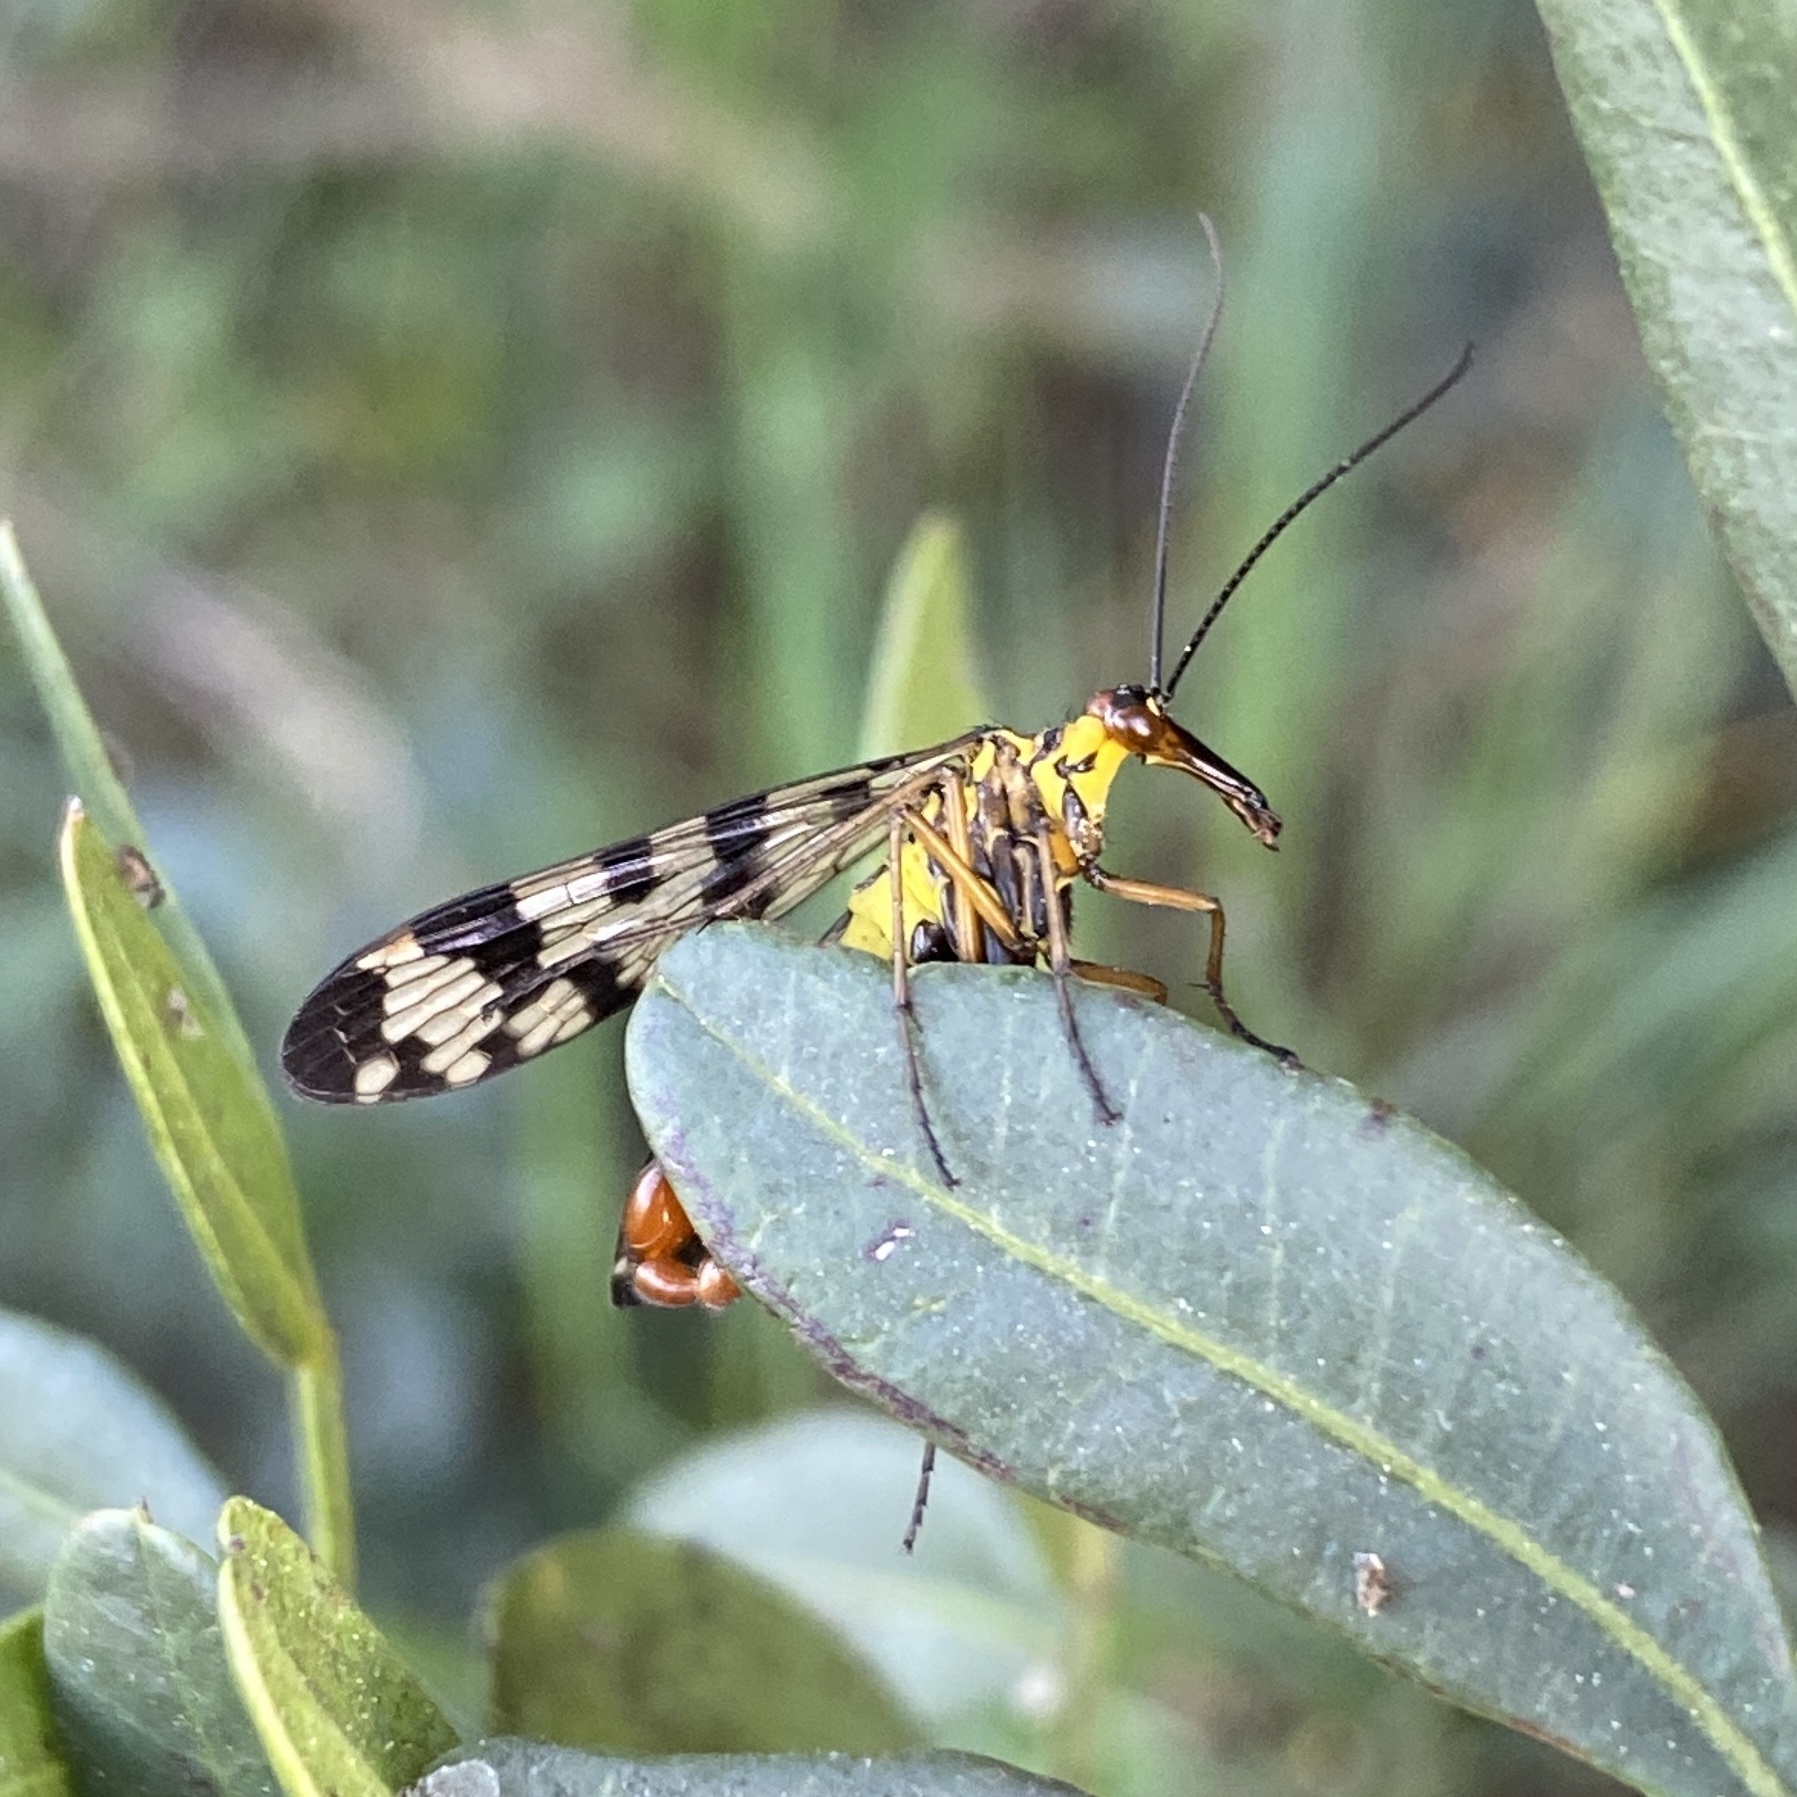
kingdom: Animalia
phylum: Arthropoda
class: Insecta
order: Mecoptera
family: Panorpidae
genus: Panorpa
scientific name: Panorpa meridionalis
